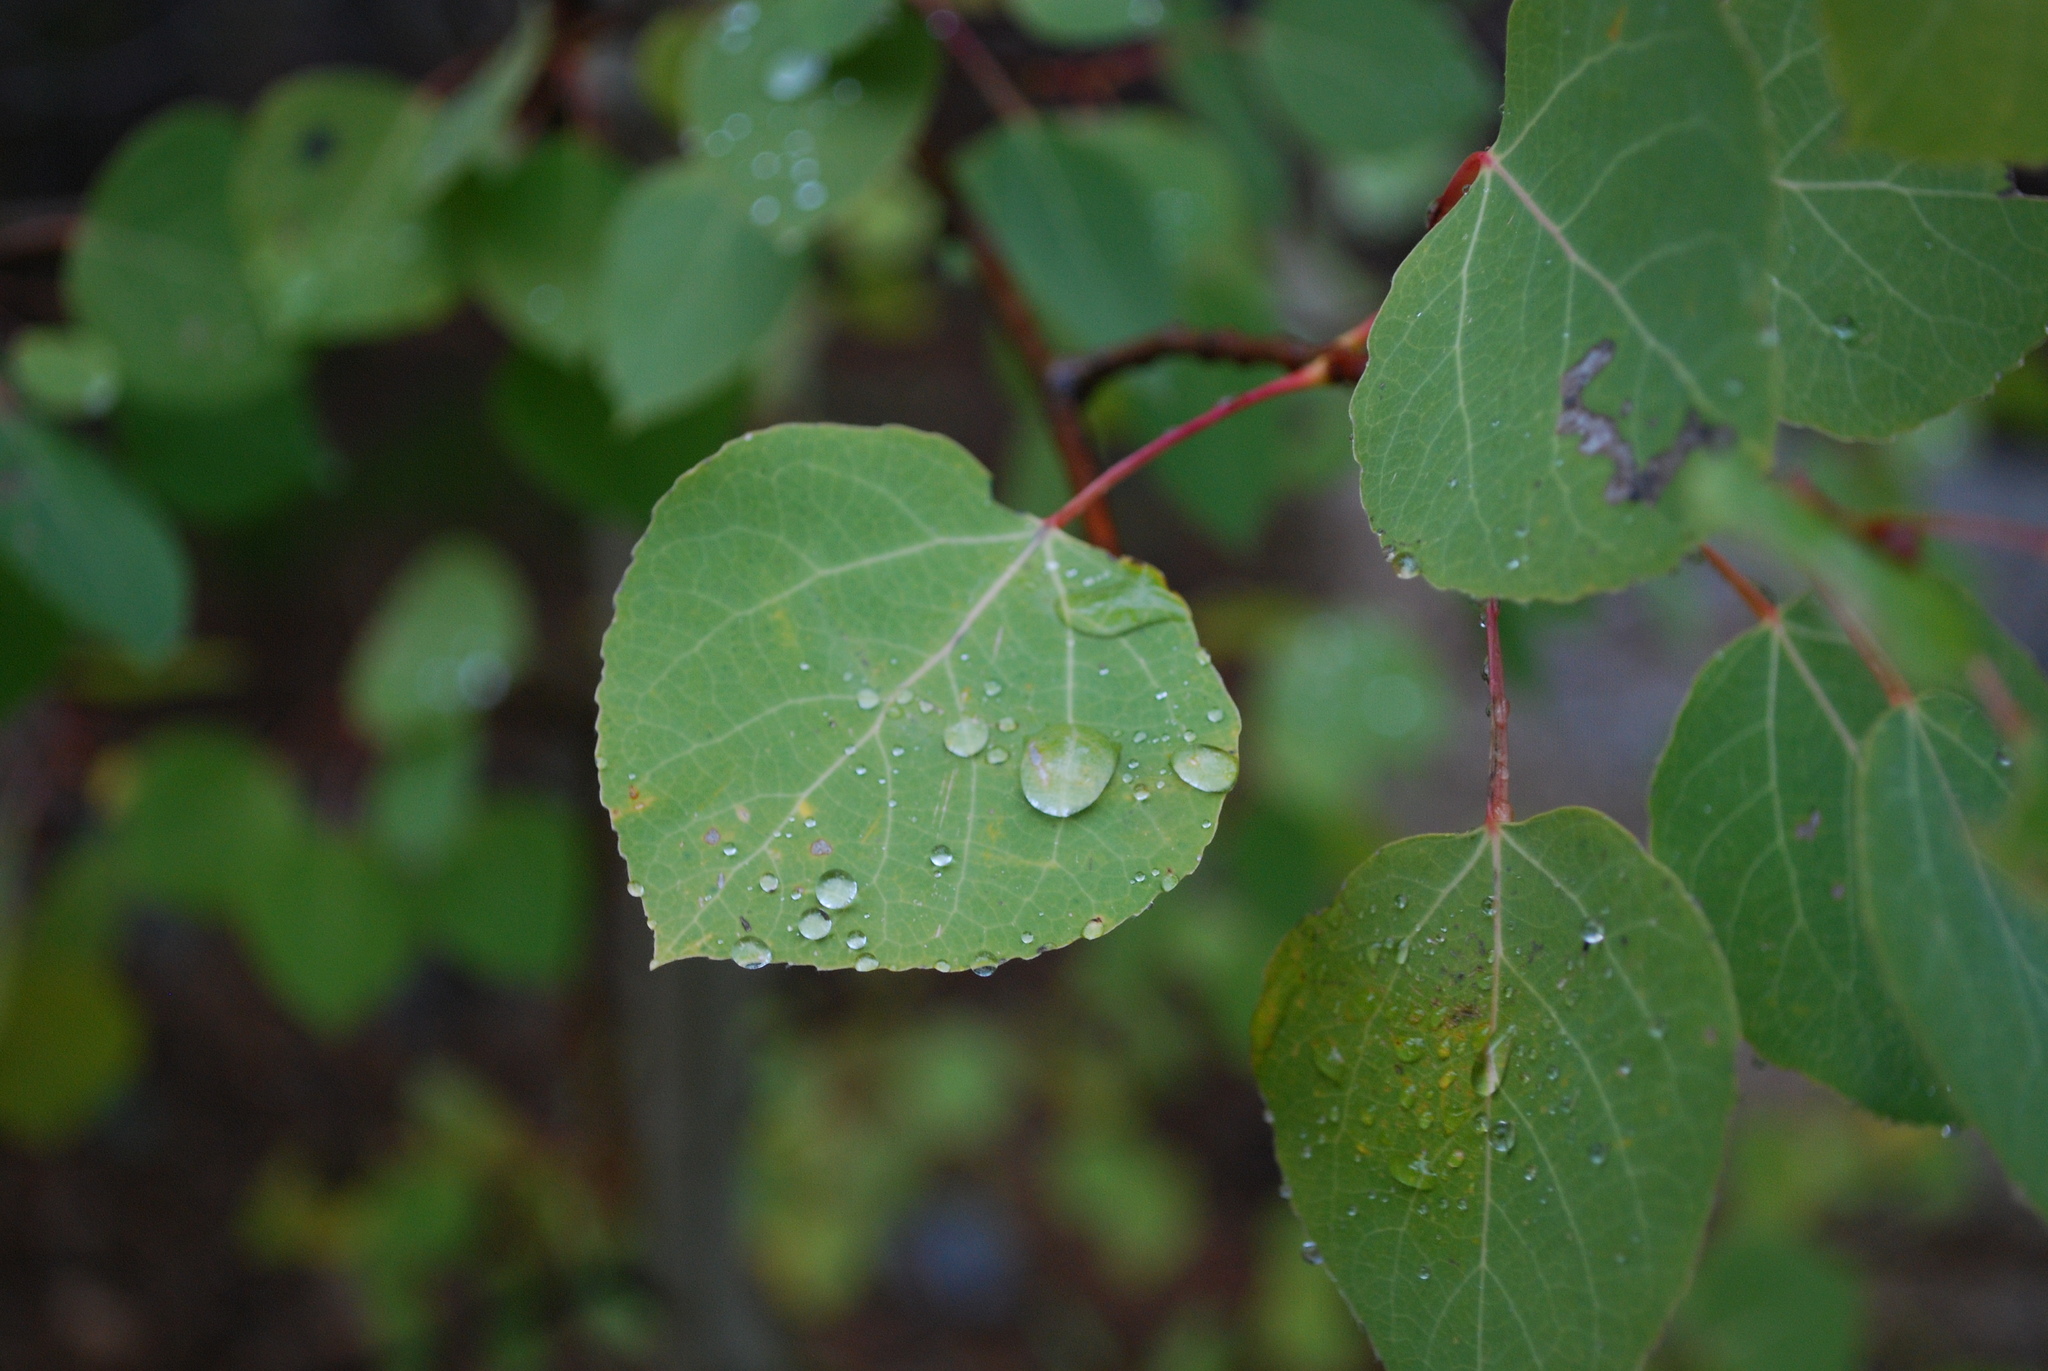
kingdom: Plantae
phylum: Tracheophyta
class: Magnoliopsida
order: Malpighiales
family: Salicaceae
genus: Populus
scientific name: Populus tremuloides
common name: Quaking aspen
